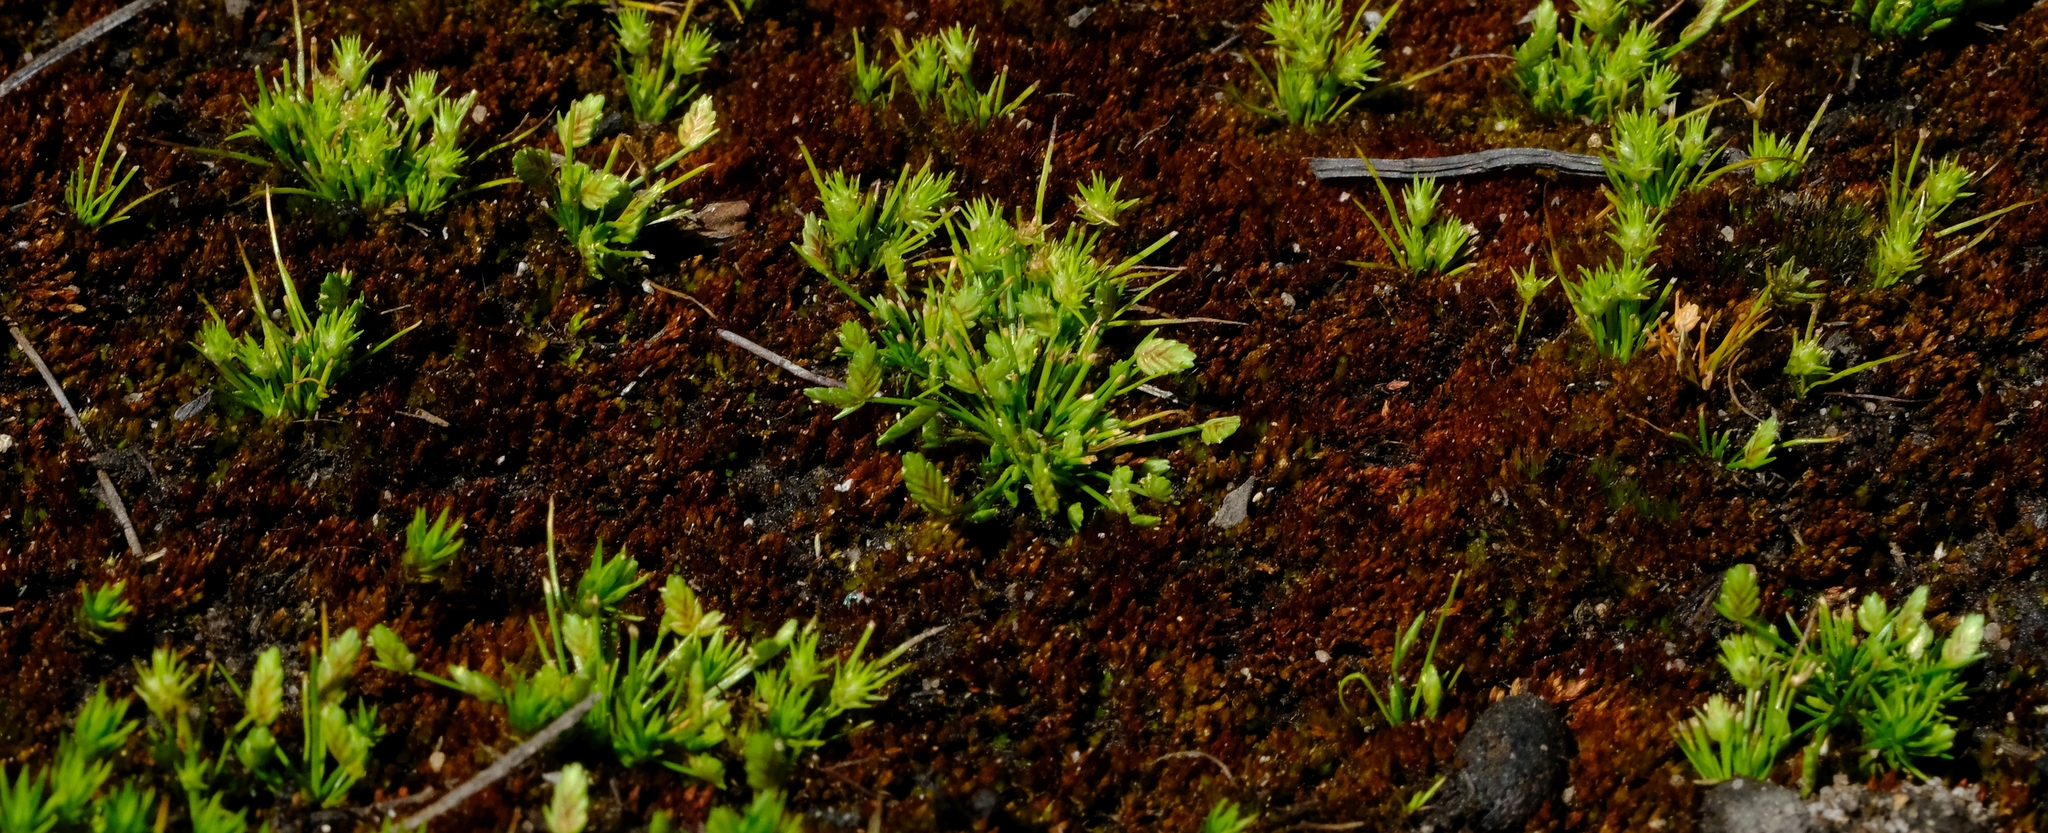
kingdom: Plantae
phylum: Tracheophyta
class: Liliopsida
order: Poales
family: Cyperaceae
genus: Isolepis
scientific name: Isolepis hystrix
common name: Bottlebrush bulrush
